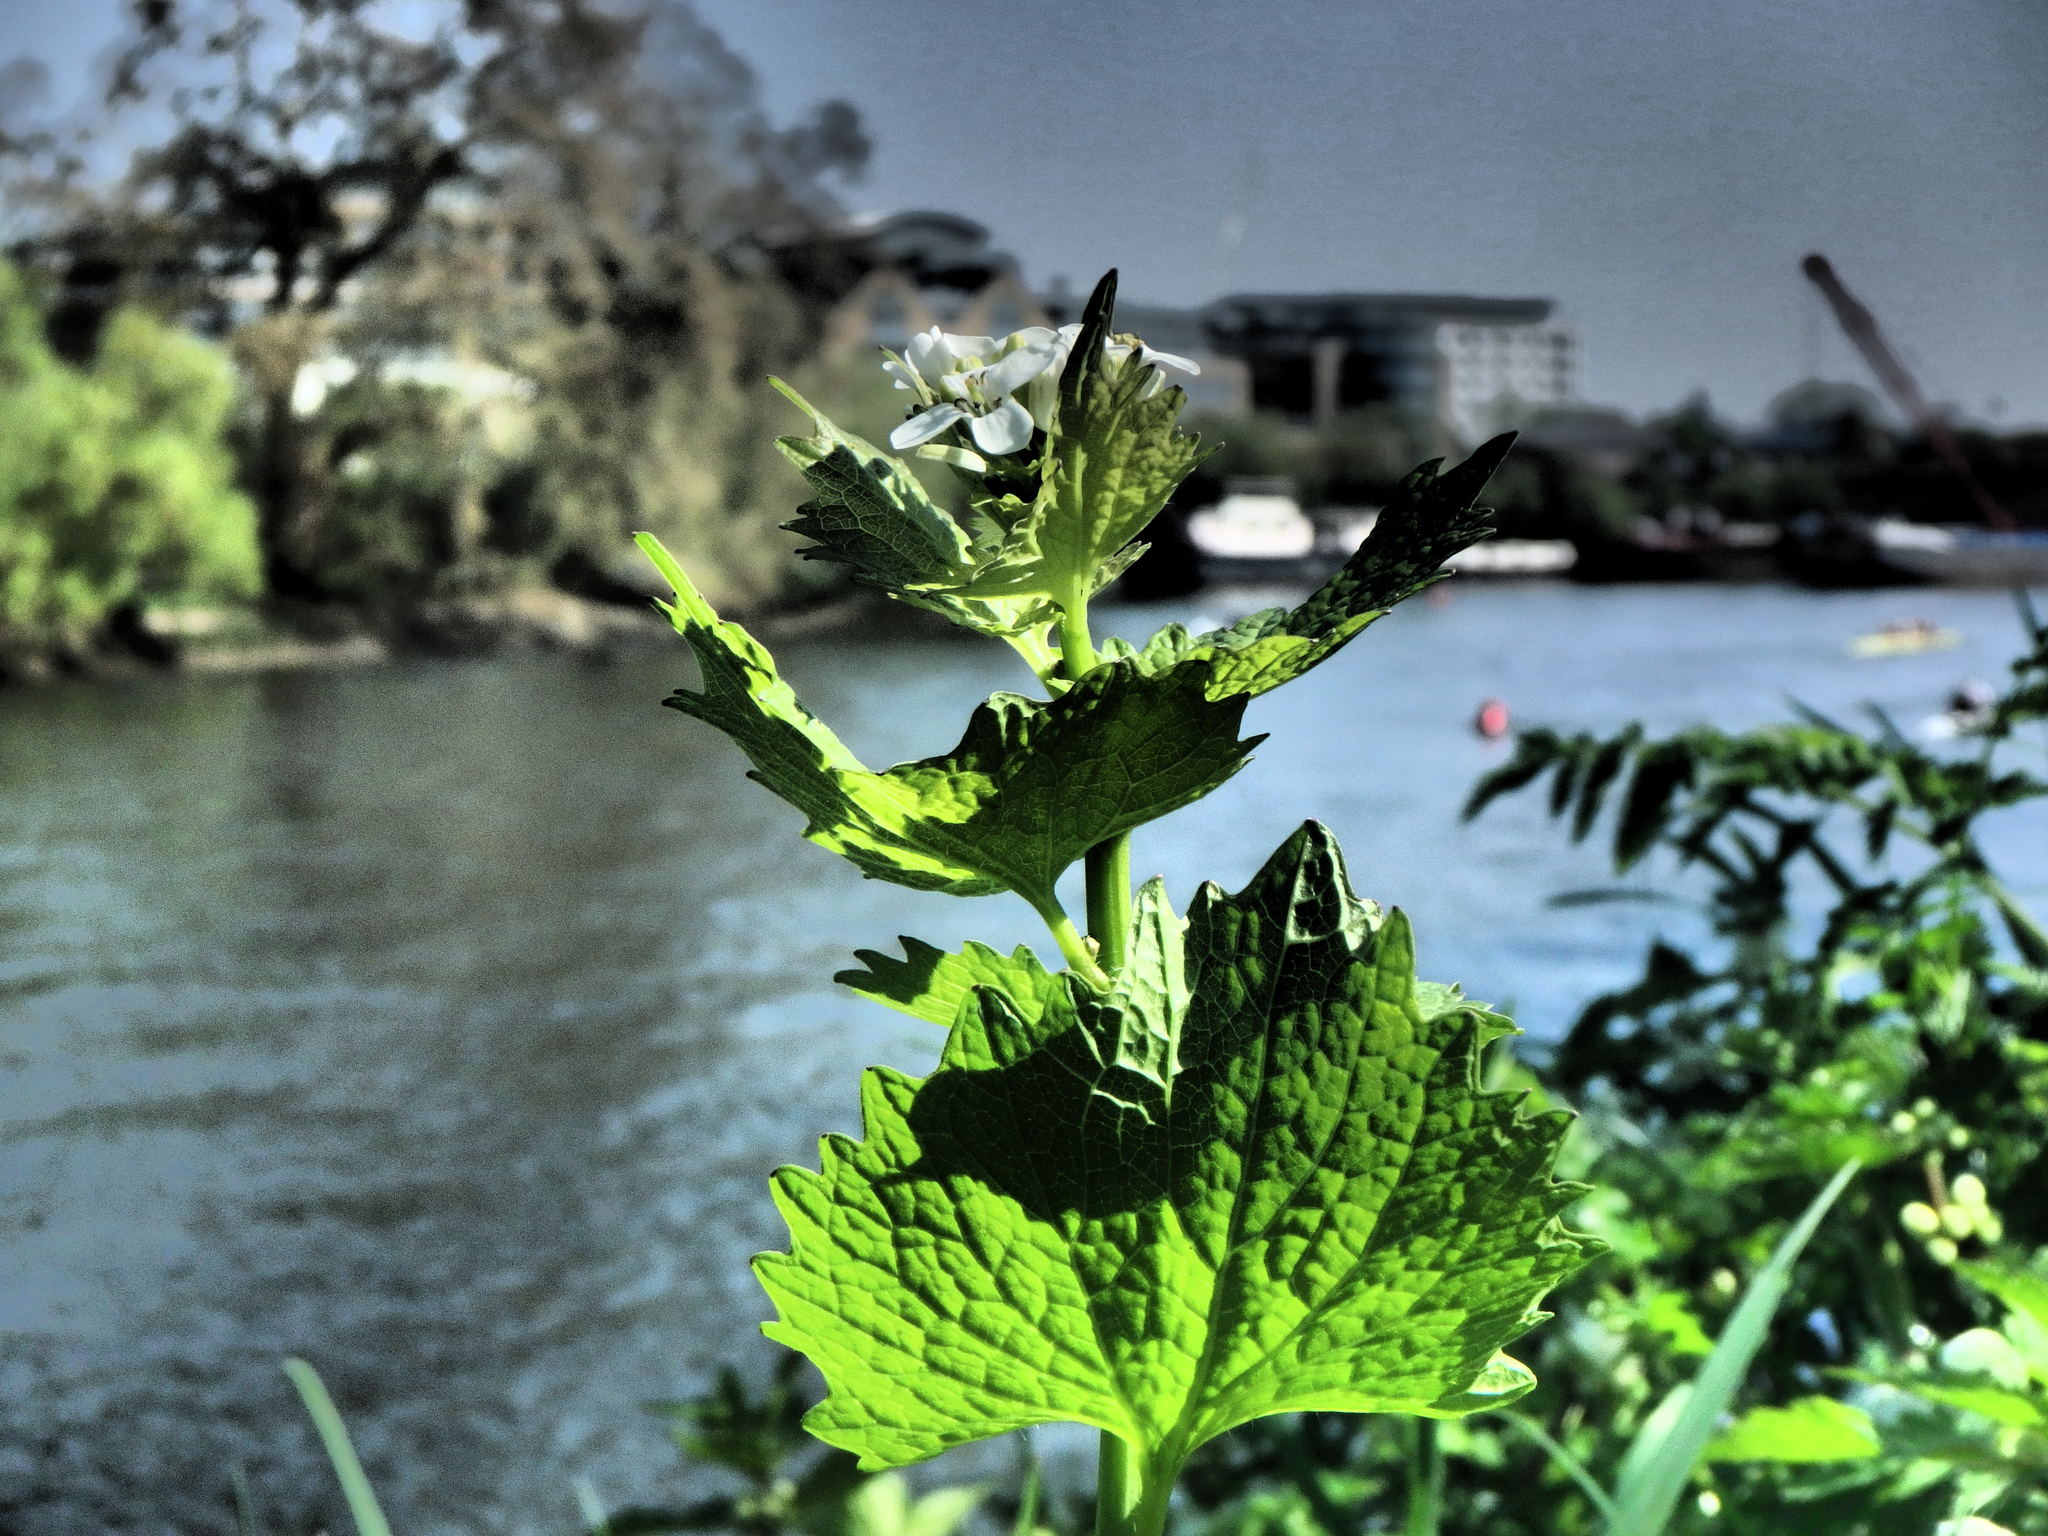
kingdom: Plantae
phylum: Tracheophyta
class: Magnoliopsida
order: Brassicales
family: Brassicaceae
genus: Alliaria
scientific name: Alliaria petiolata
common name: Garlic mustard
